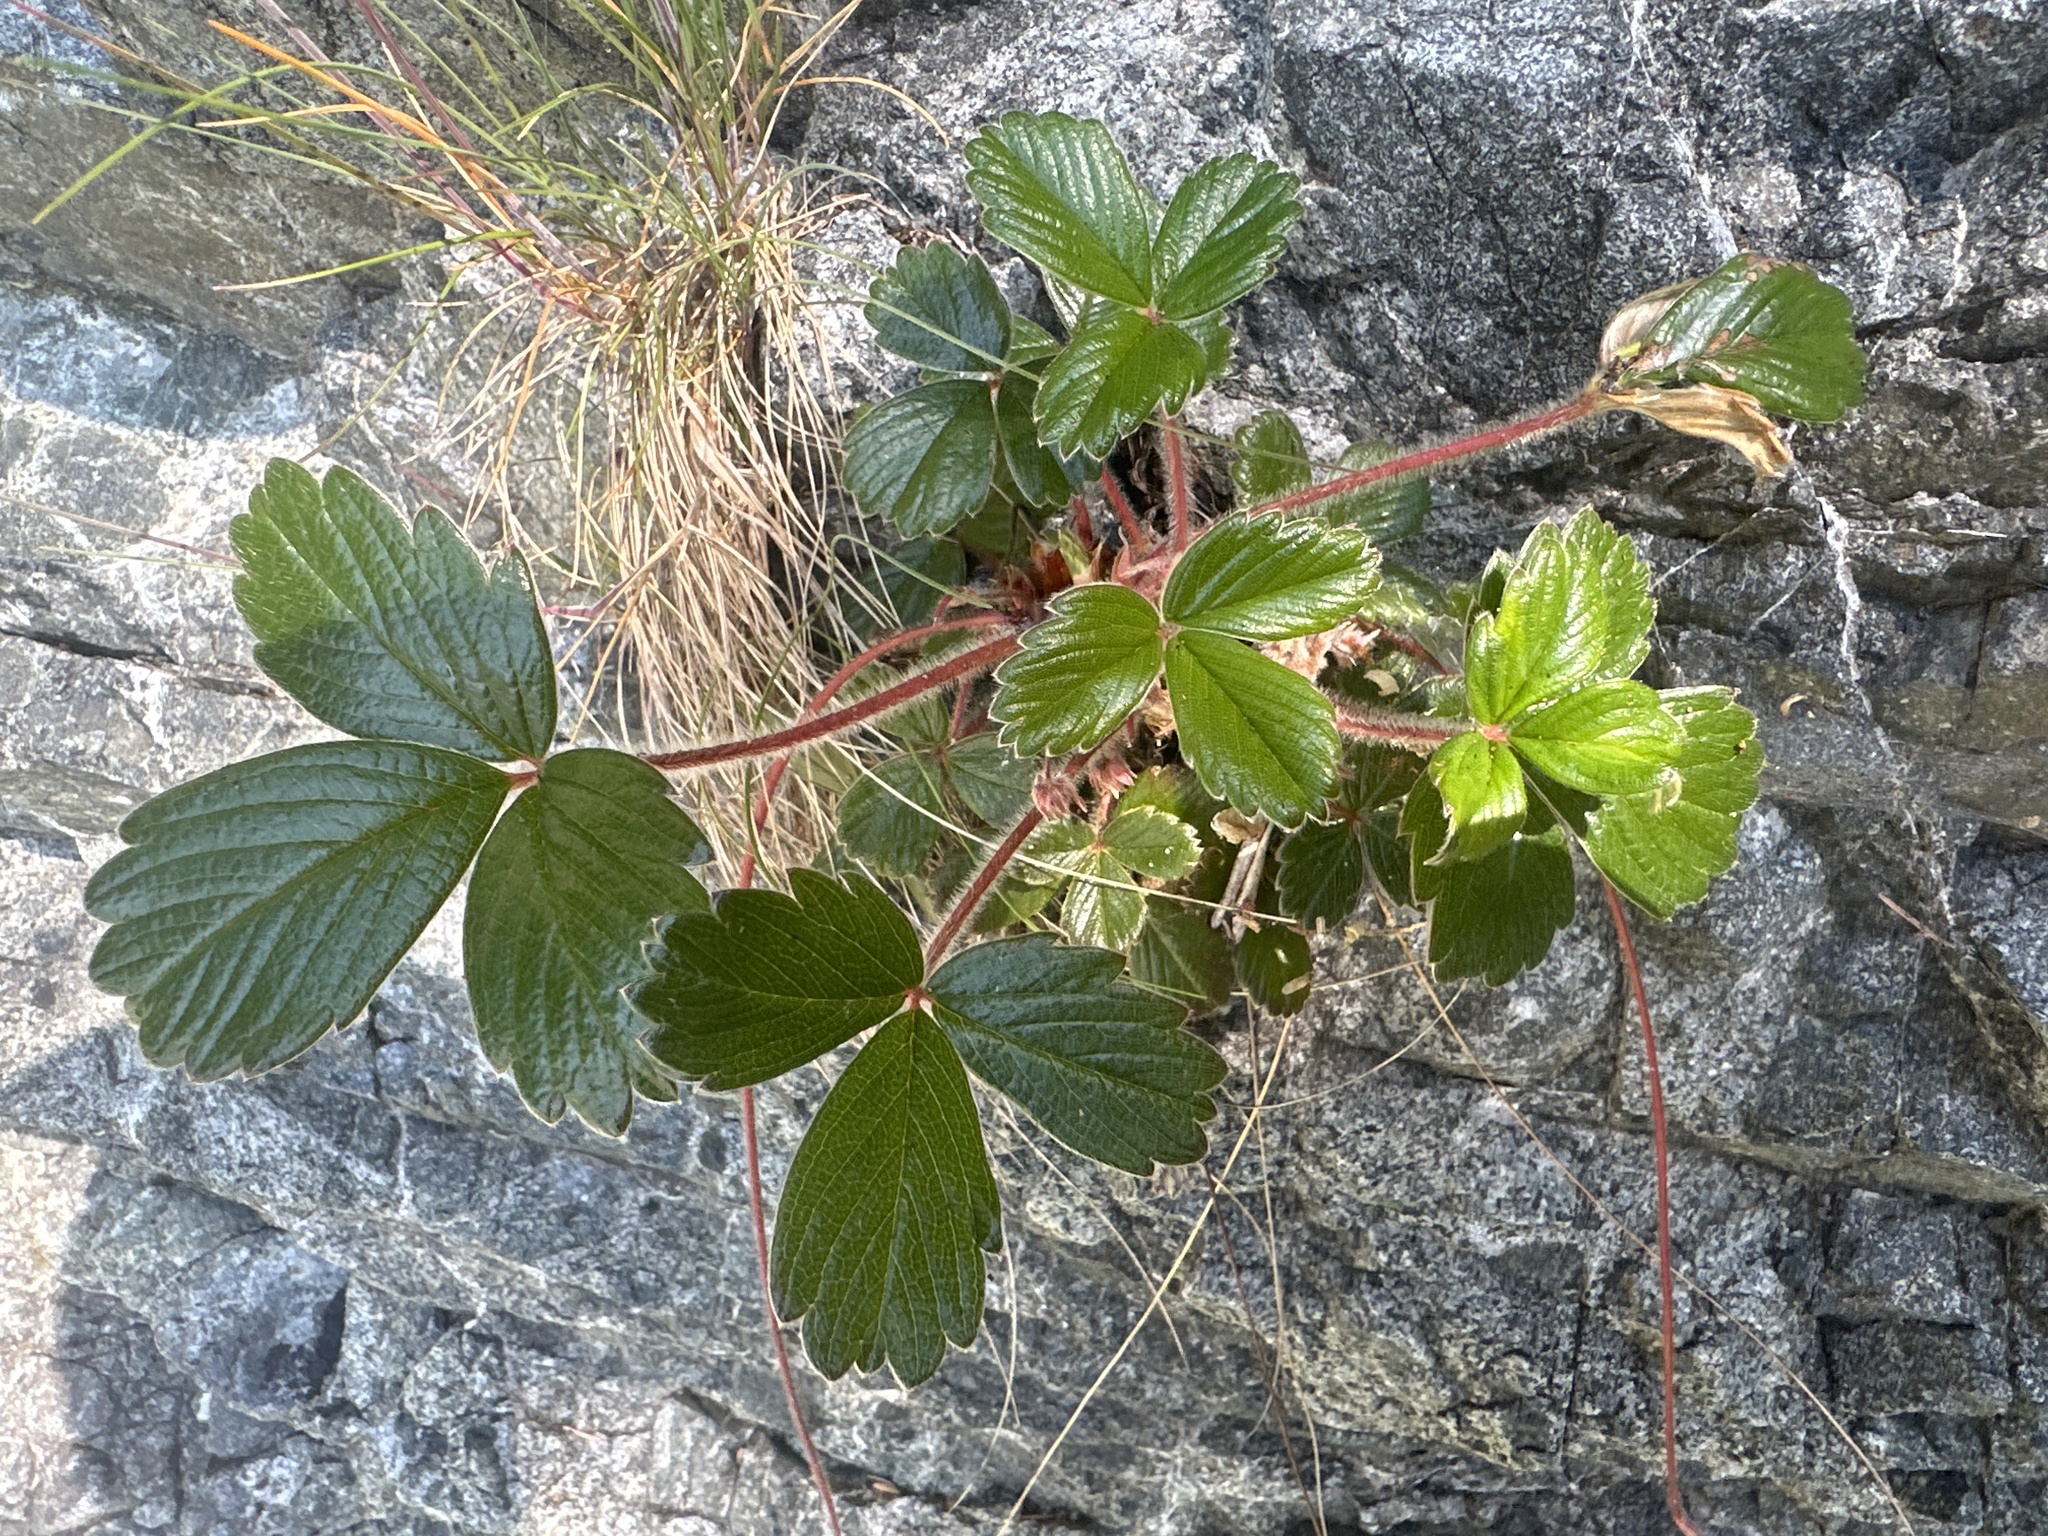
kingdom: Plantae
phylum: Tracheophyta
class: Magnoliopsida
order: Rosales
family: Rosaceae
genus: Fragaria
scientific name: Fragaria chiloensis
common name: Beach strawberry
